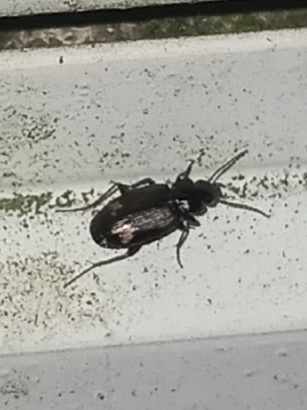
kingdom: Animalia
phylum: Arthropoda
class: Insecta
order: Coleoptera
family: Carabidae
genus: Tetragonoderus
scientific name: Tetragonoderus intersectus
